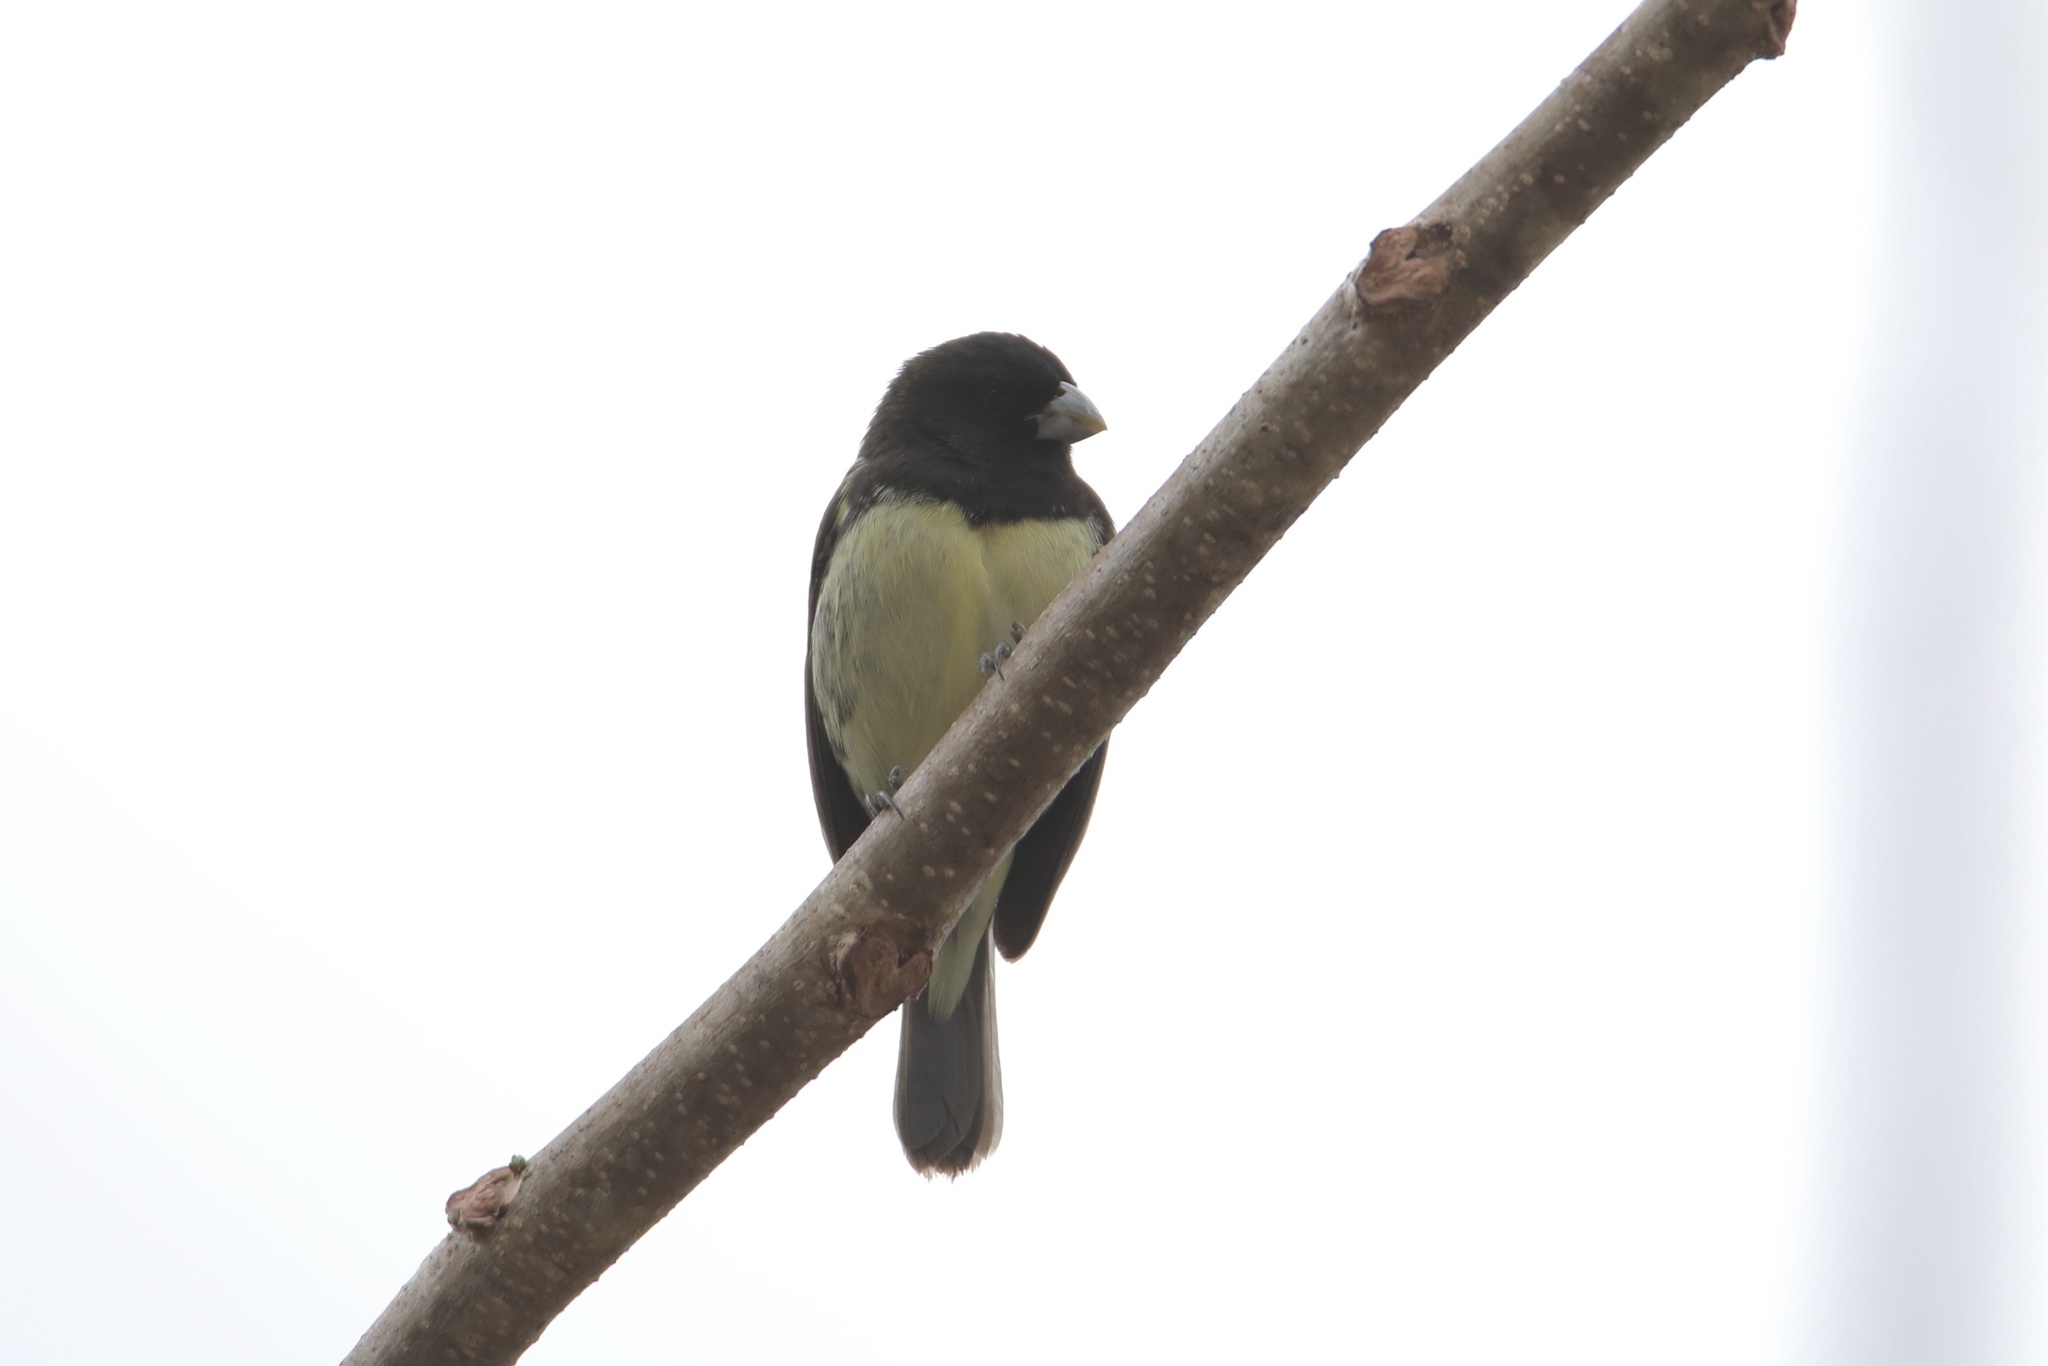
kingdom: Animalia
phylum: Chordata
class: Aves
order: Passeriformes
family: Thraupidae
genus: Sporophila
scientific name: Sporophila nigricollis
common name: Yellow-bellied seedeater
